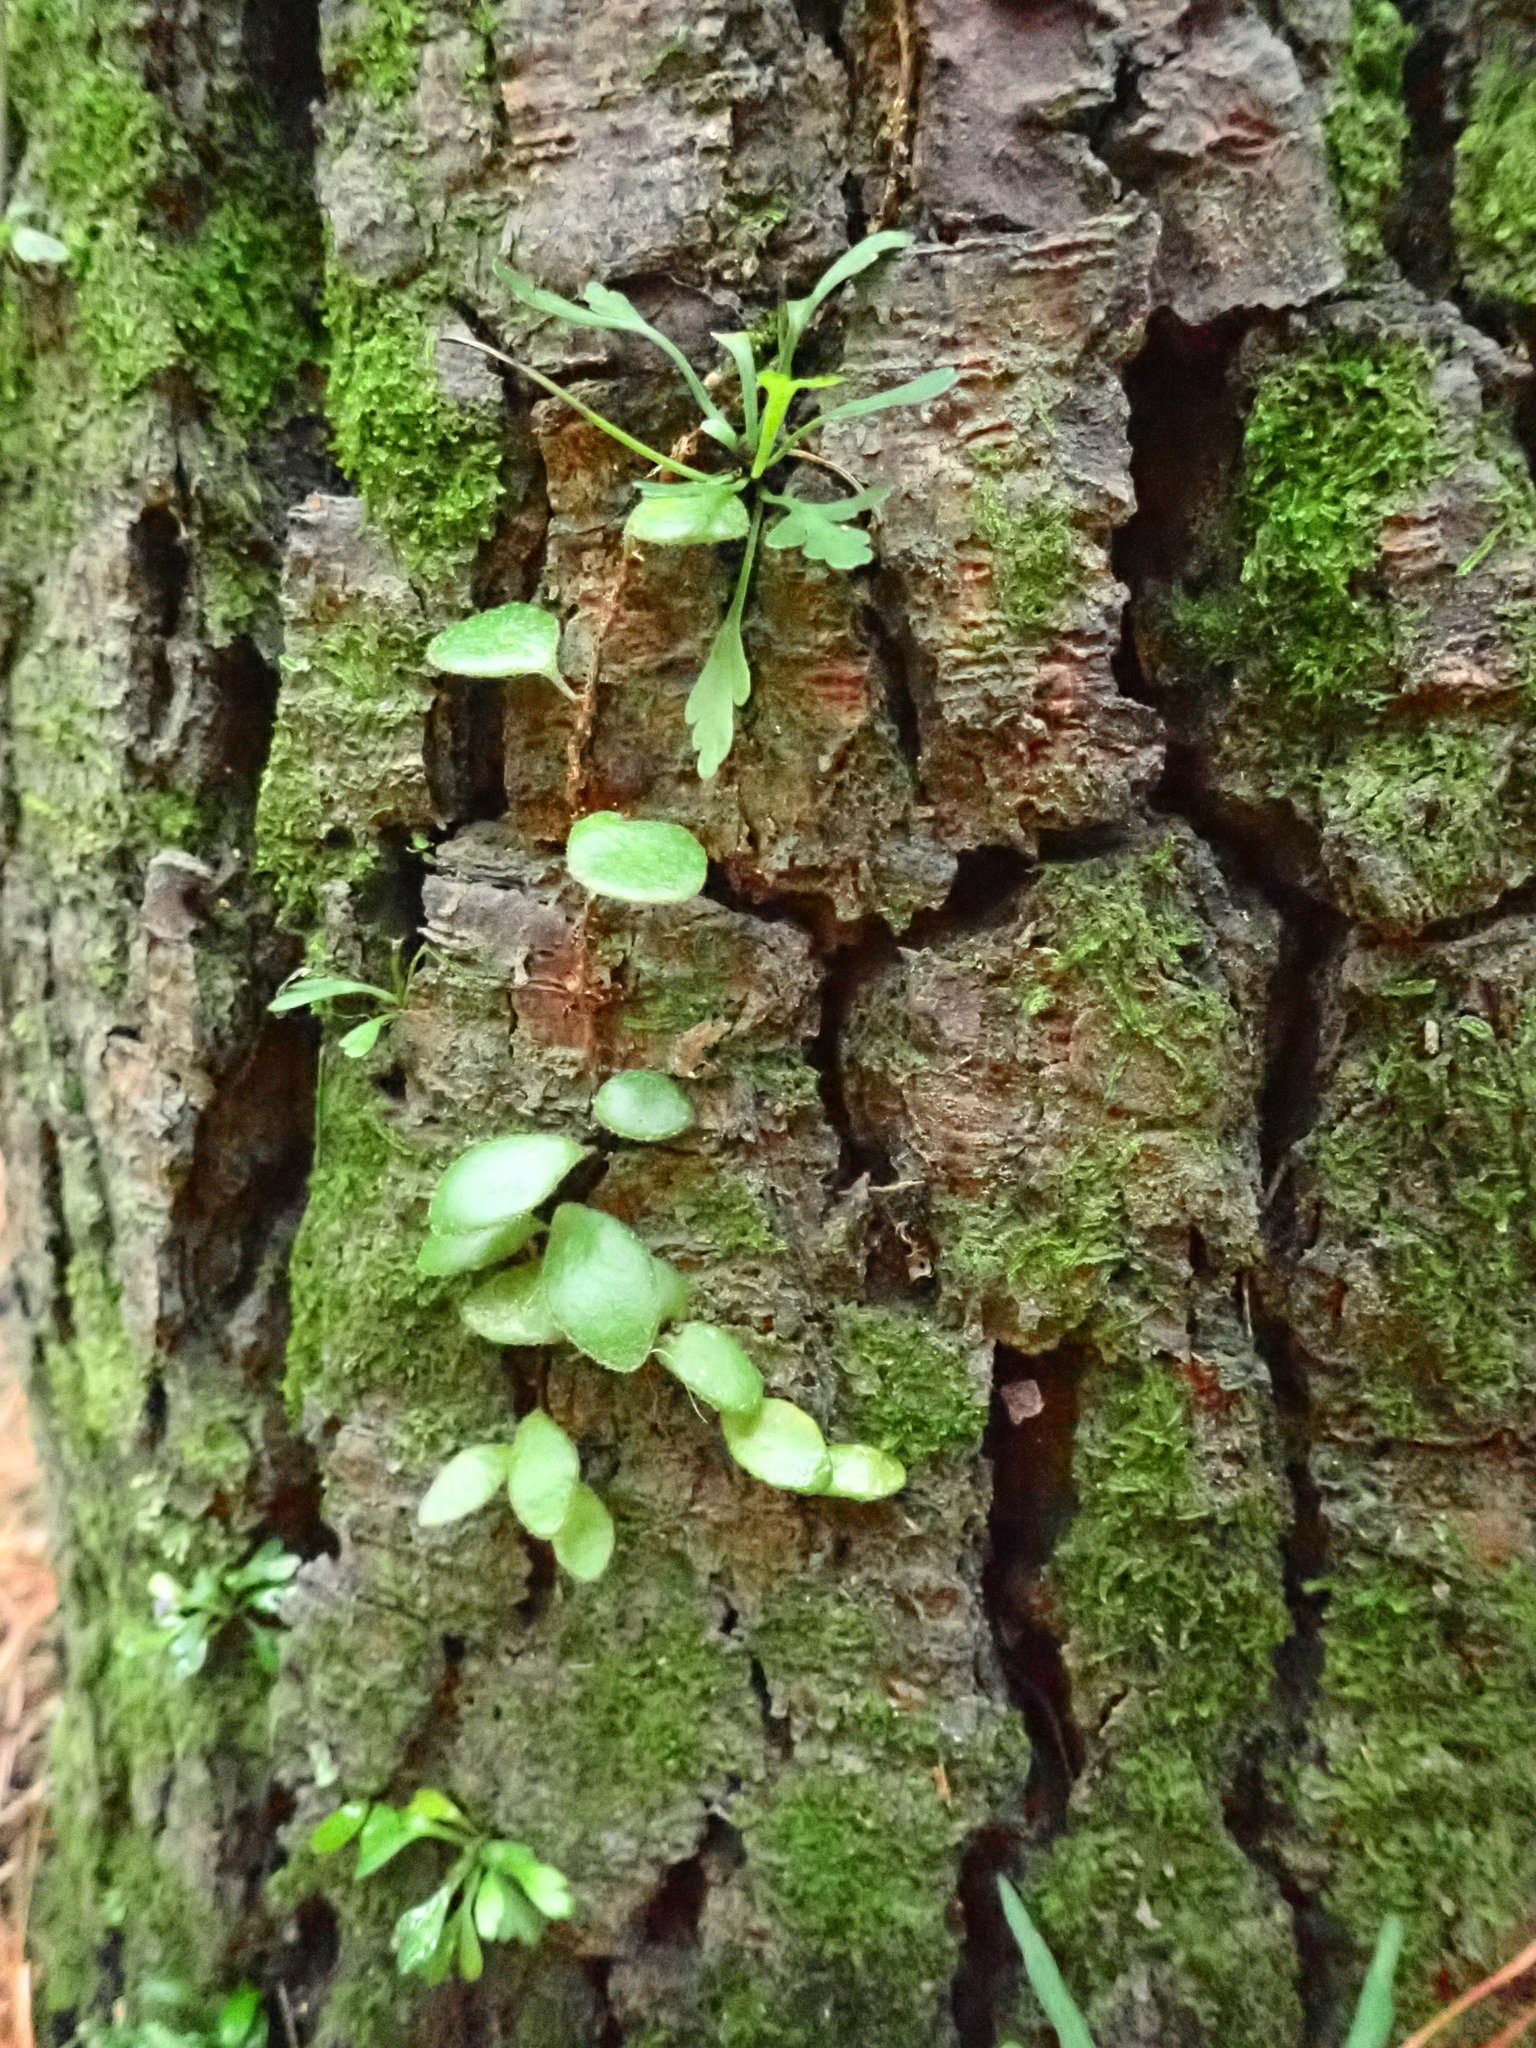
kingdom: Plantae
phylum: Tracheophyta
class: Polypodiopsida
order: Polypodiales
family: Polypodiaceae
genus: Pyrrosia
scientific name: Pyrrosia eleagnifolia
